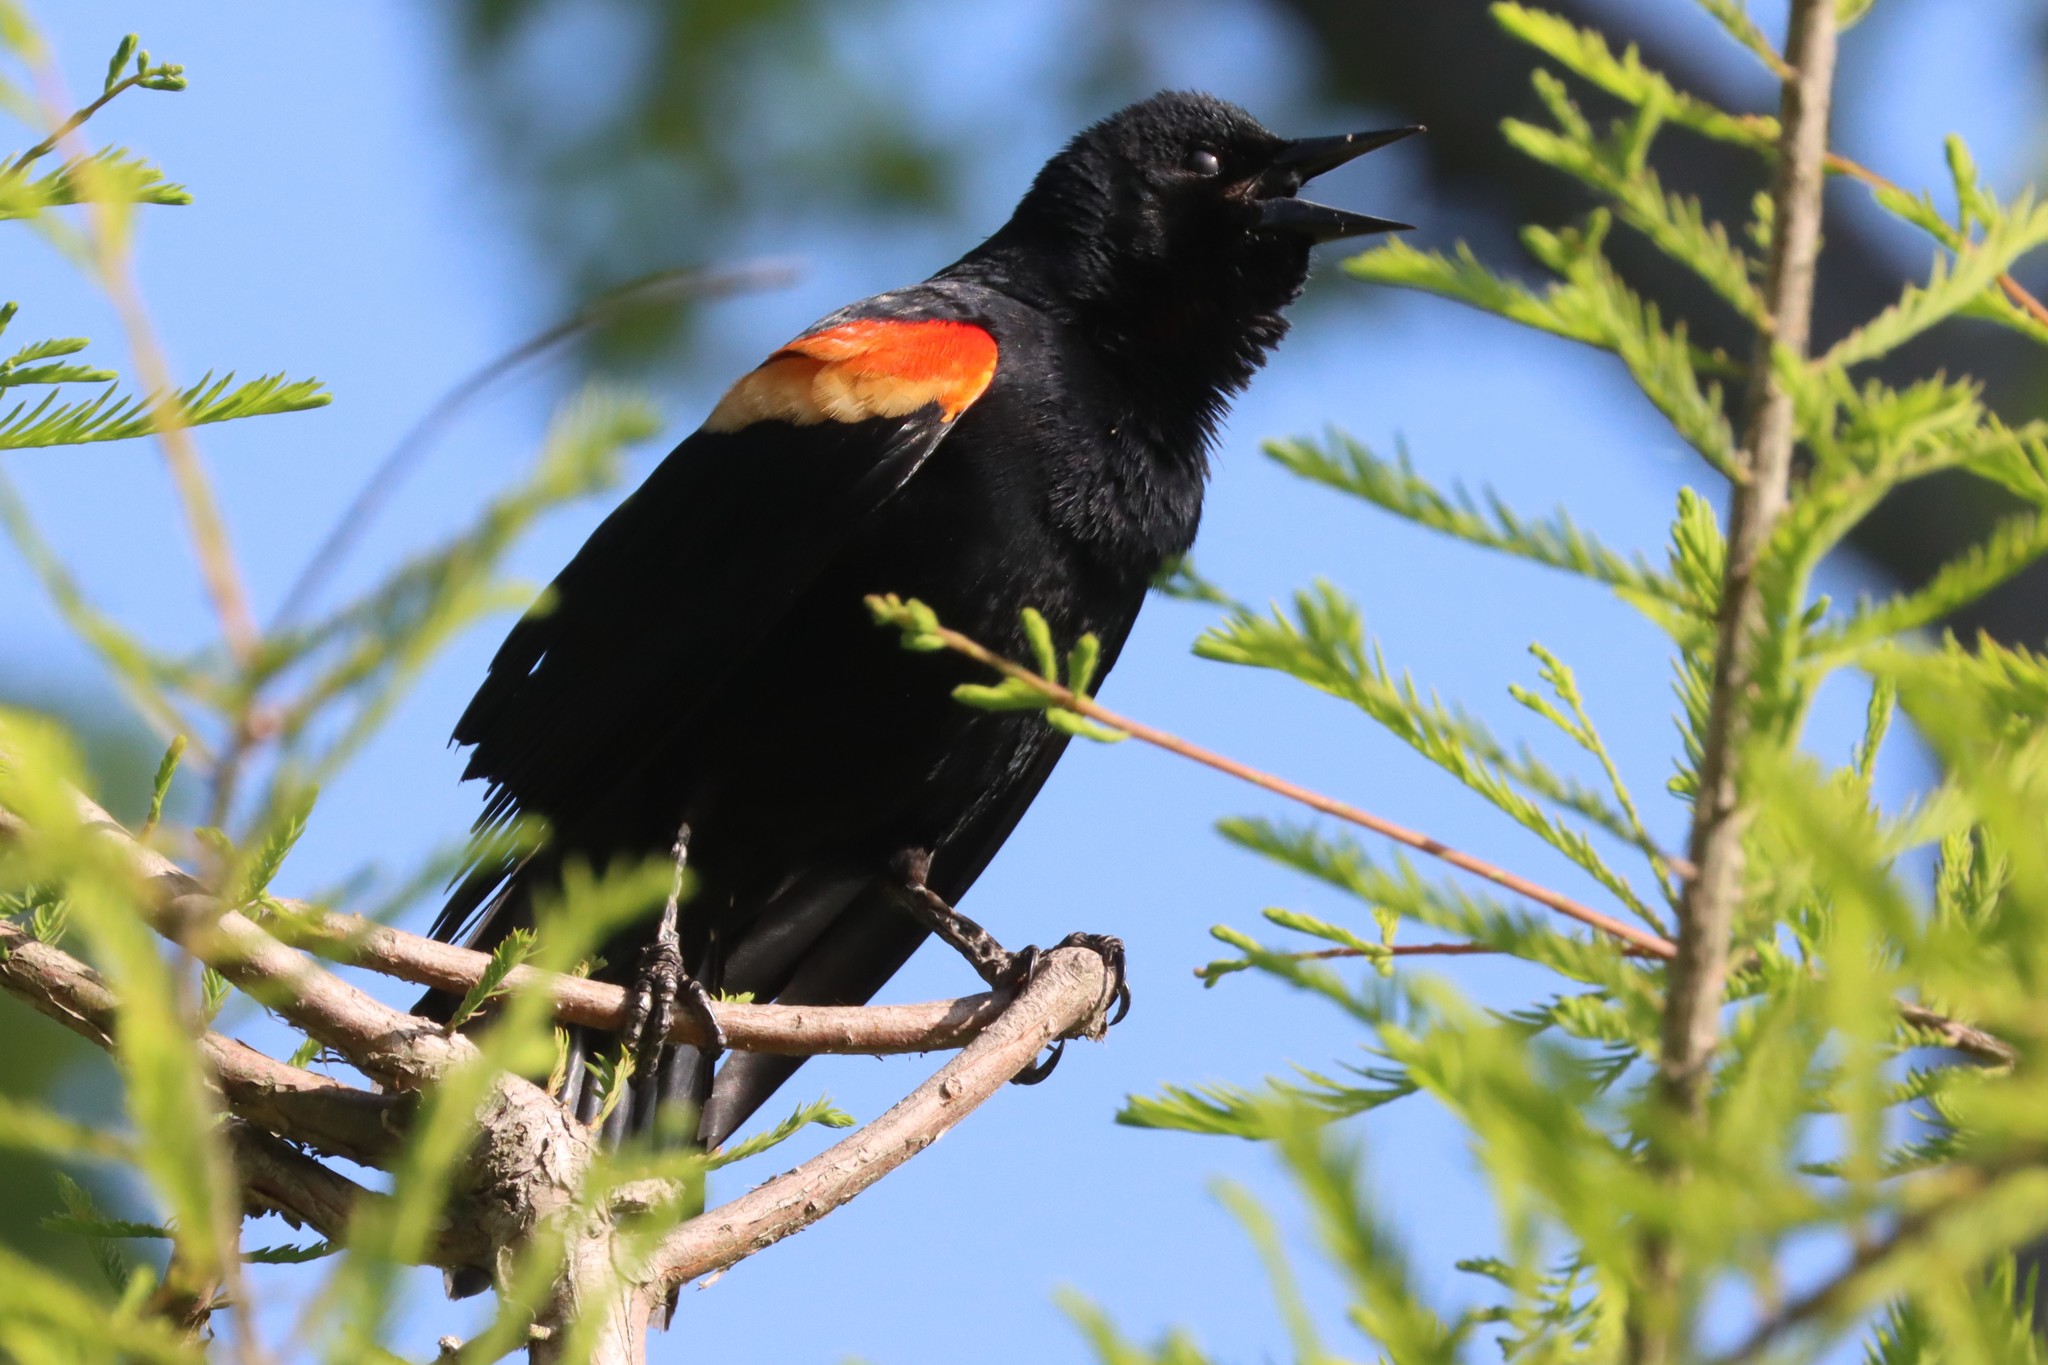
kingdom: Animalia
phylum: Chordata
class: Aves
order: Passeriformes
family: Icteridae
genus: Agelaius
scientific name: Agelaius phoeniceus
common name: Red-winged blackbird
